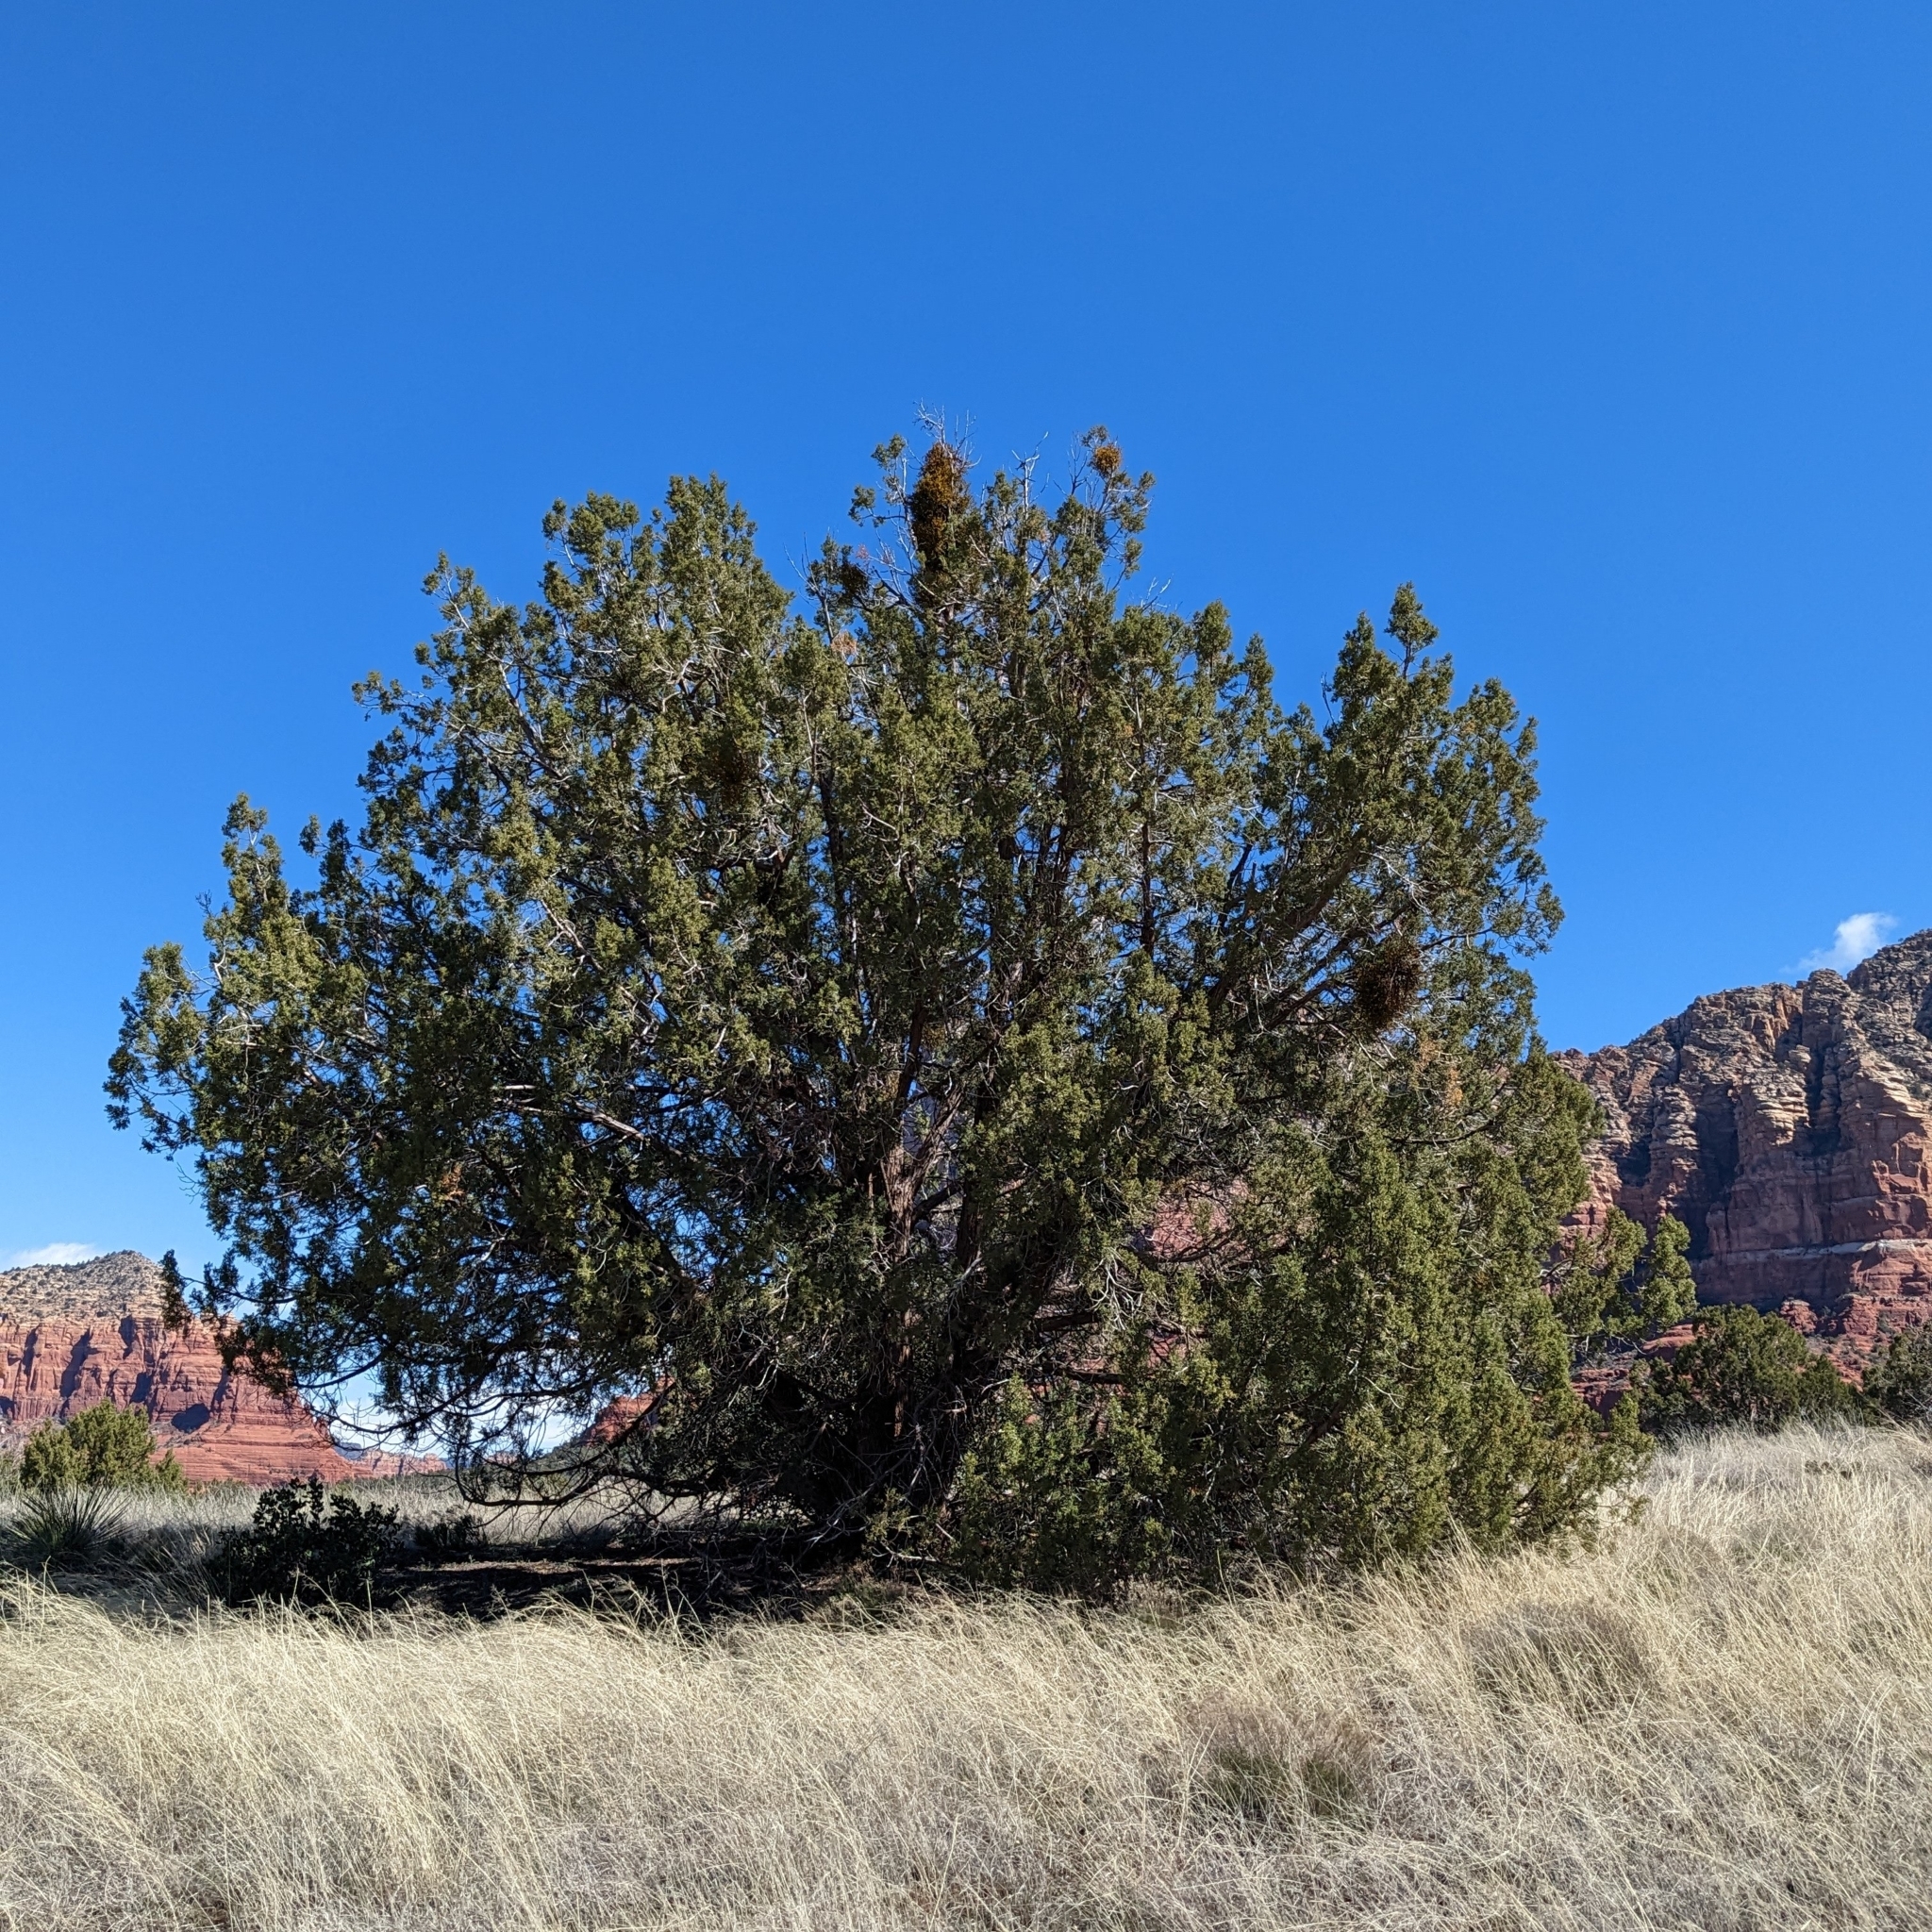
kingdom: Plantae
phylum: Tracheophyta
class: Magnoliopsida
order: Santalales
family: Viscaceae
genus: Phoradendron
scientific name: Phoradendron juniperinum
